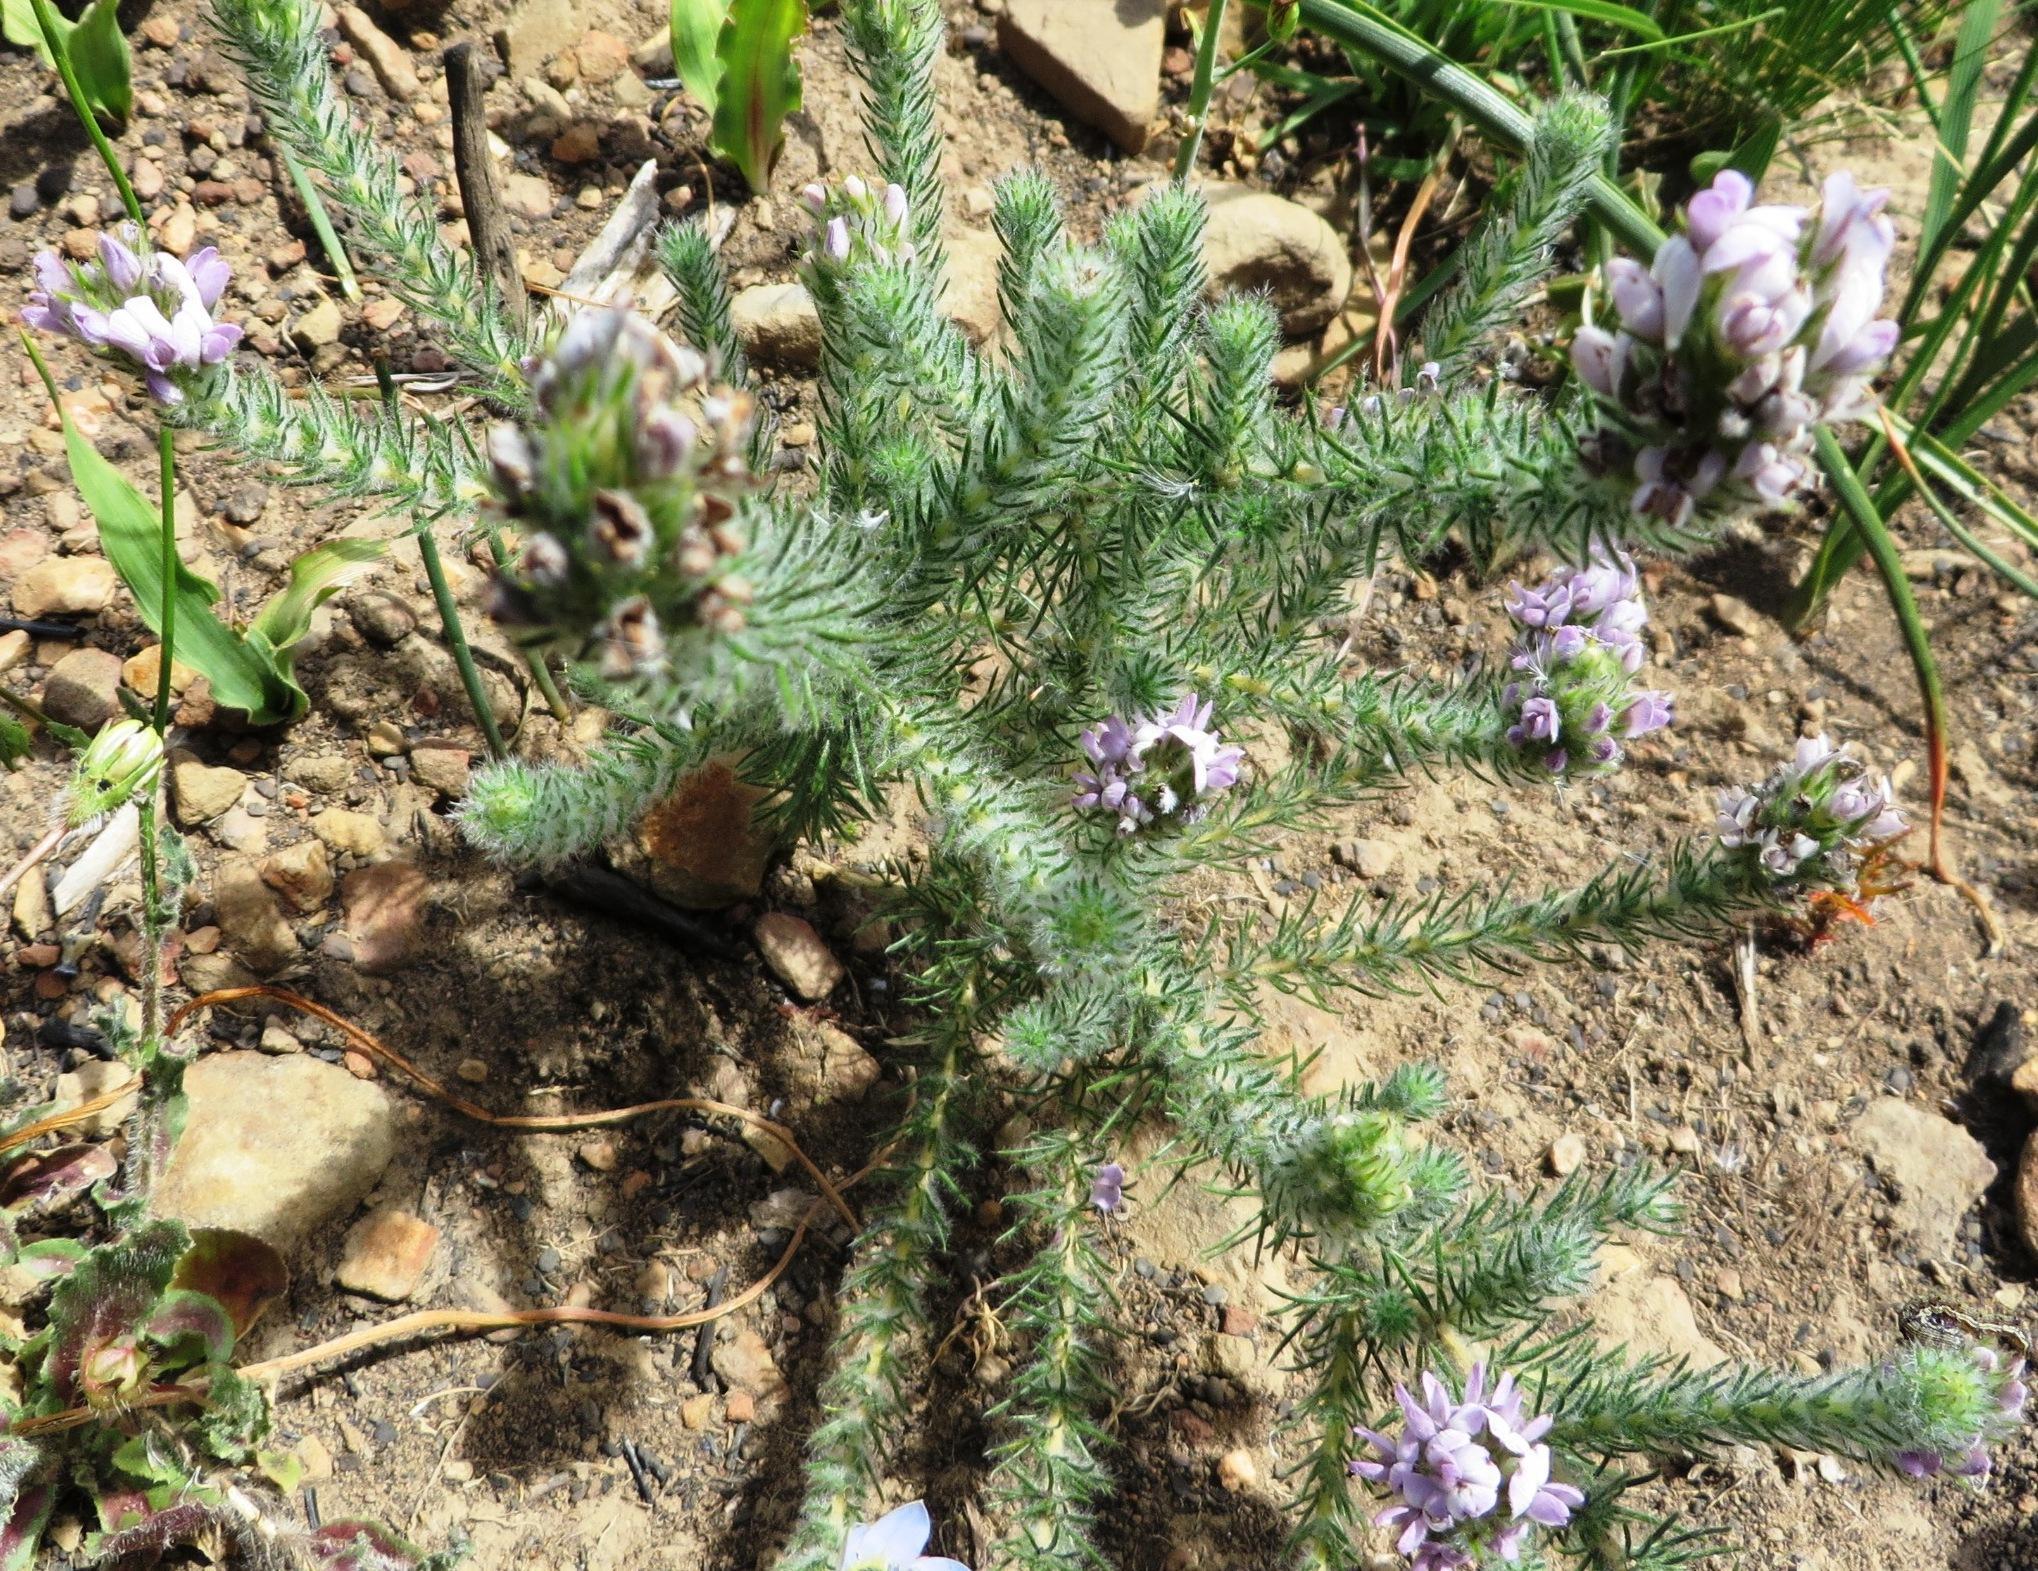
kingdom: Plantae
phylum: Tracheophyta
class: Magnoliopsida
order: Fabales
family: Fabaceae
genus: Aspalathus
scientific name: Aspalathus cephalotes
